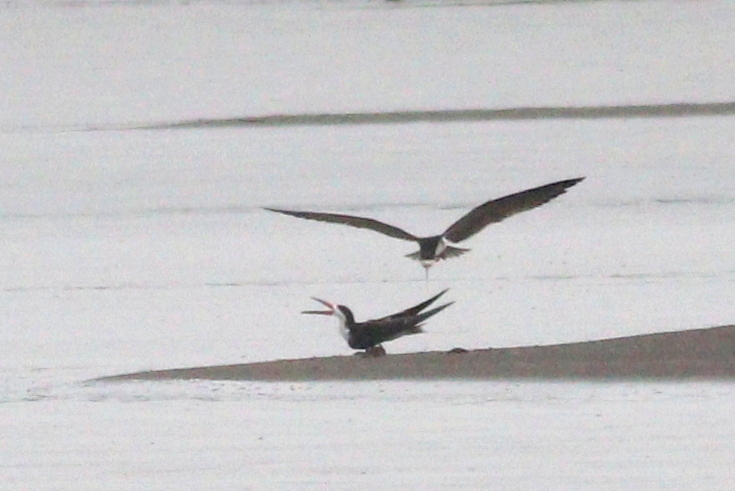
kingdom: Animalia
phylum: Chordata
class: Aves
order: Charadriiformes
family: Laridae
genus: Rynchops
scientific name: Rynchops niger
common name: Black skimmer
